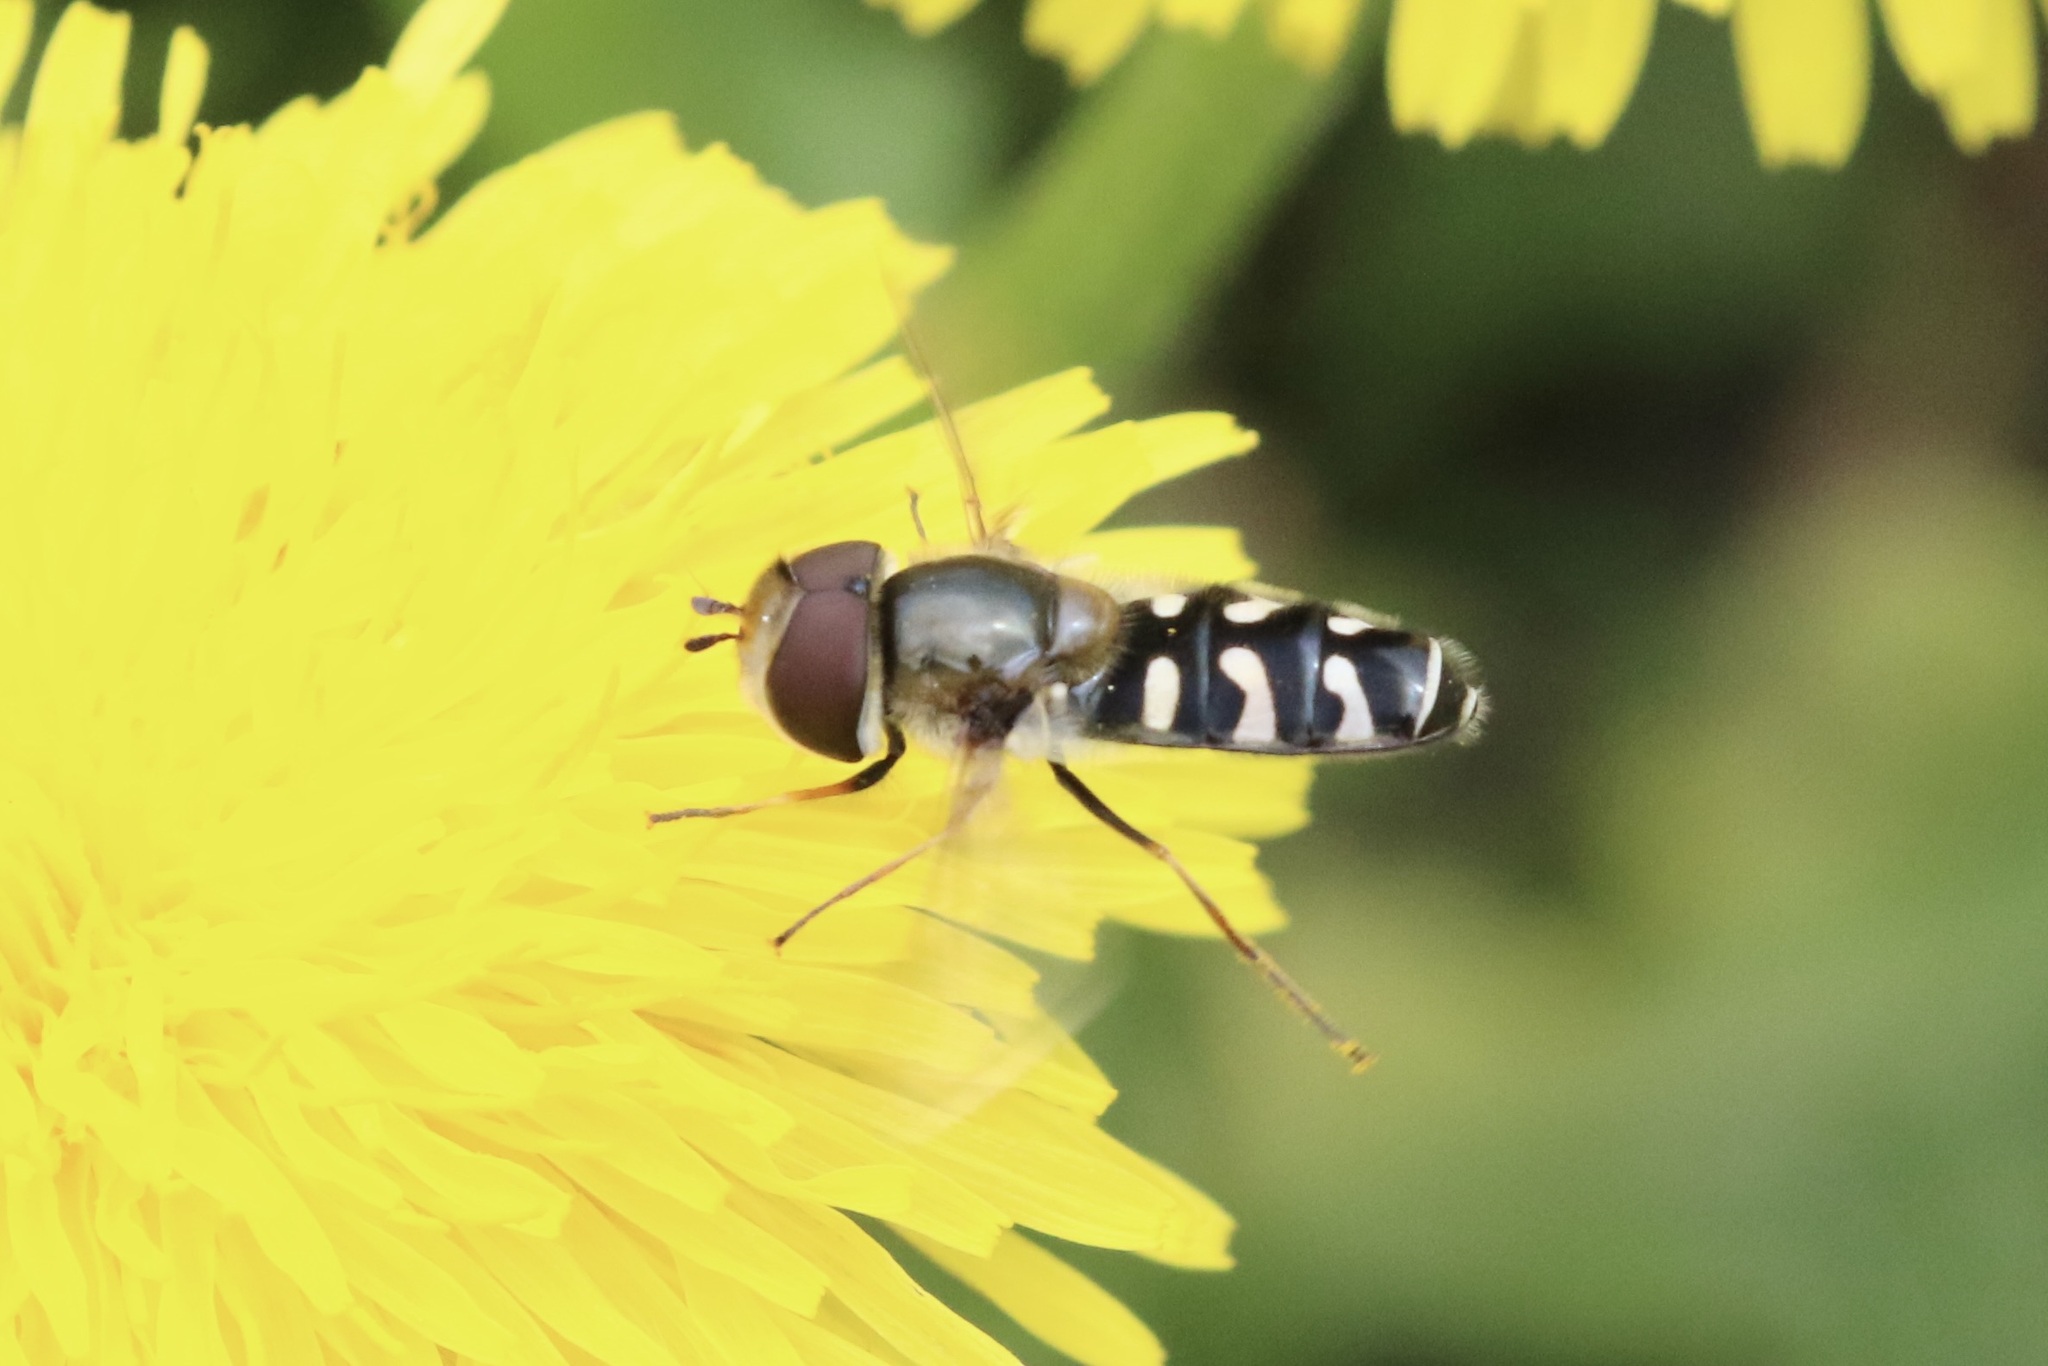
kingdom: Animalia
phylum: Arthropoda
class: Insecta
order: Diptera
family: Syrphidae
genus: Scaeva
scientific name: Scaeva pyrastri
